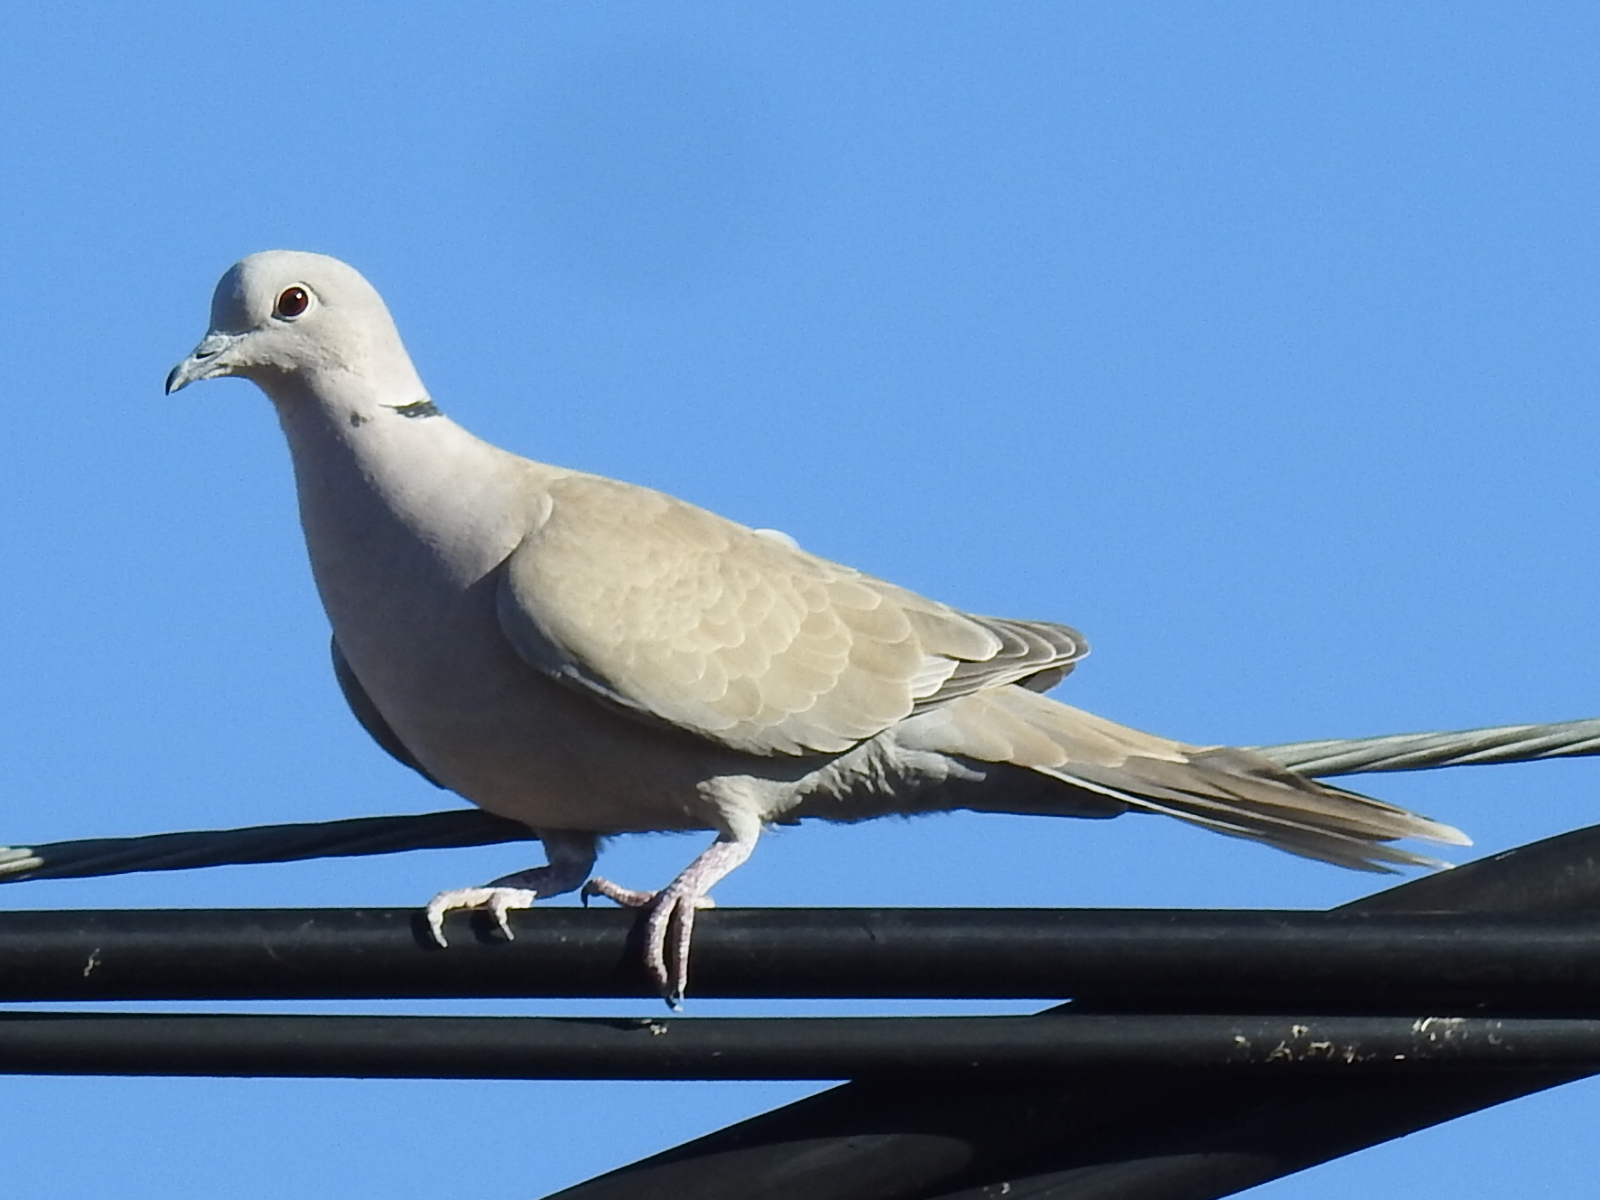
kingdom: Animalia
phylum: Chordata
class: Aves
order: Columbiformes
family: Columbidae
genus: Streptopelia
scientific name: Streptopelia decaocto
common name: Eurasian collared dove
